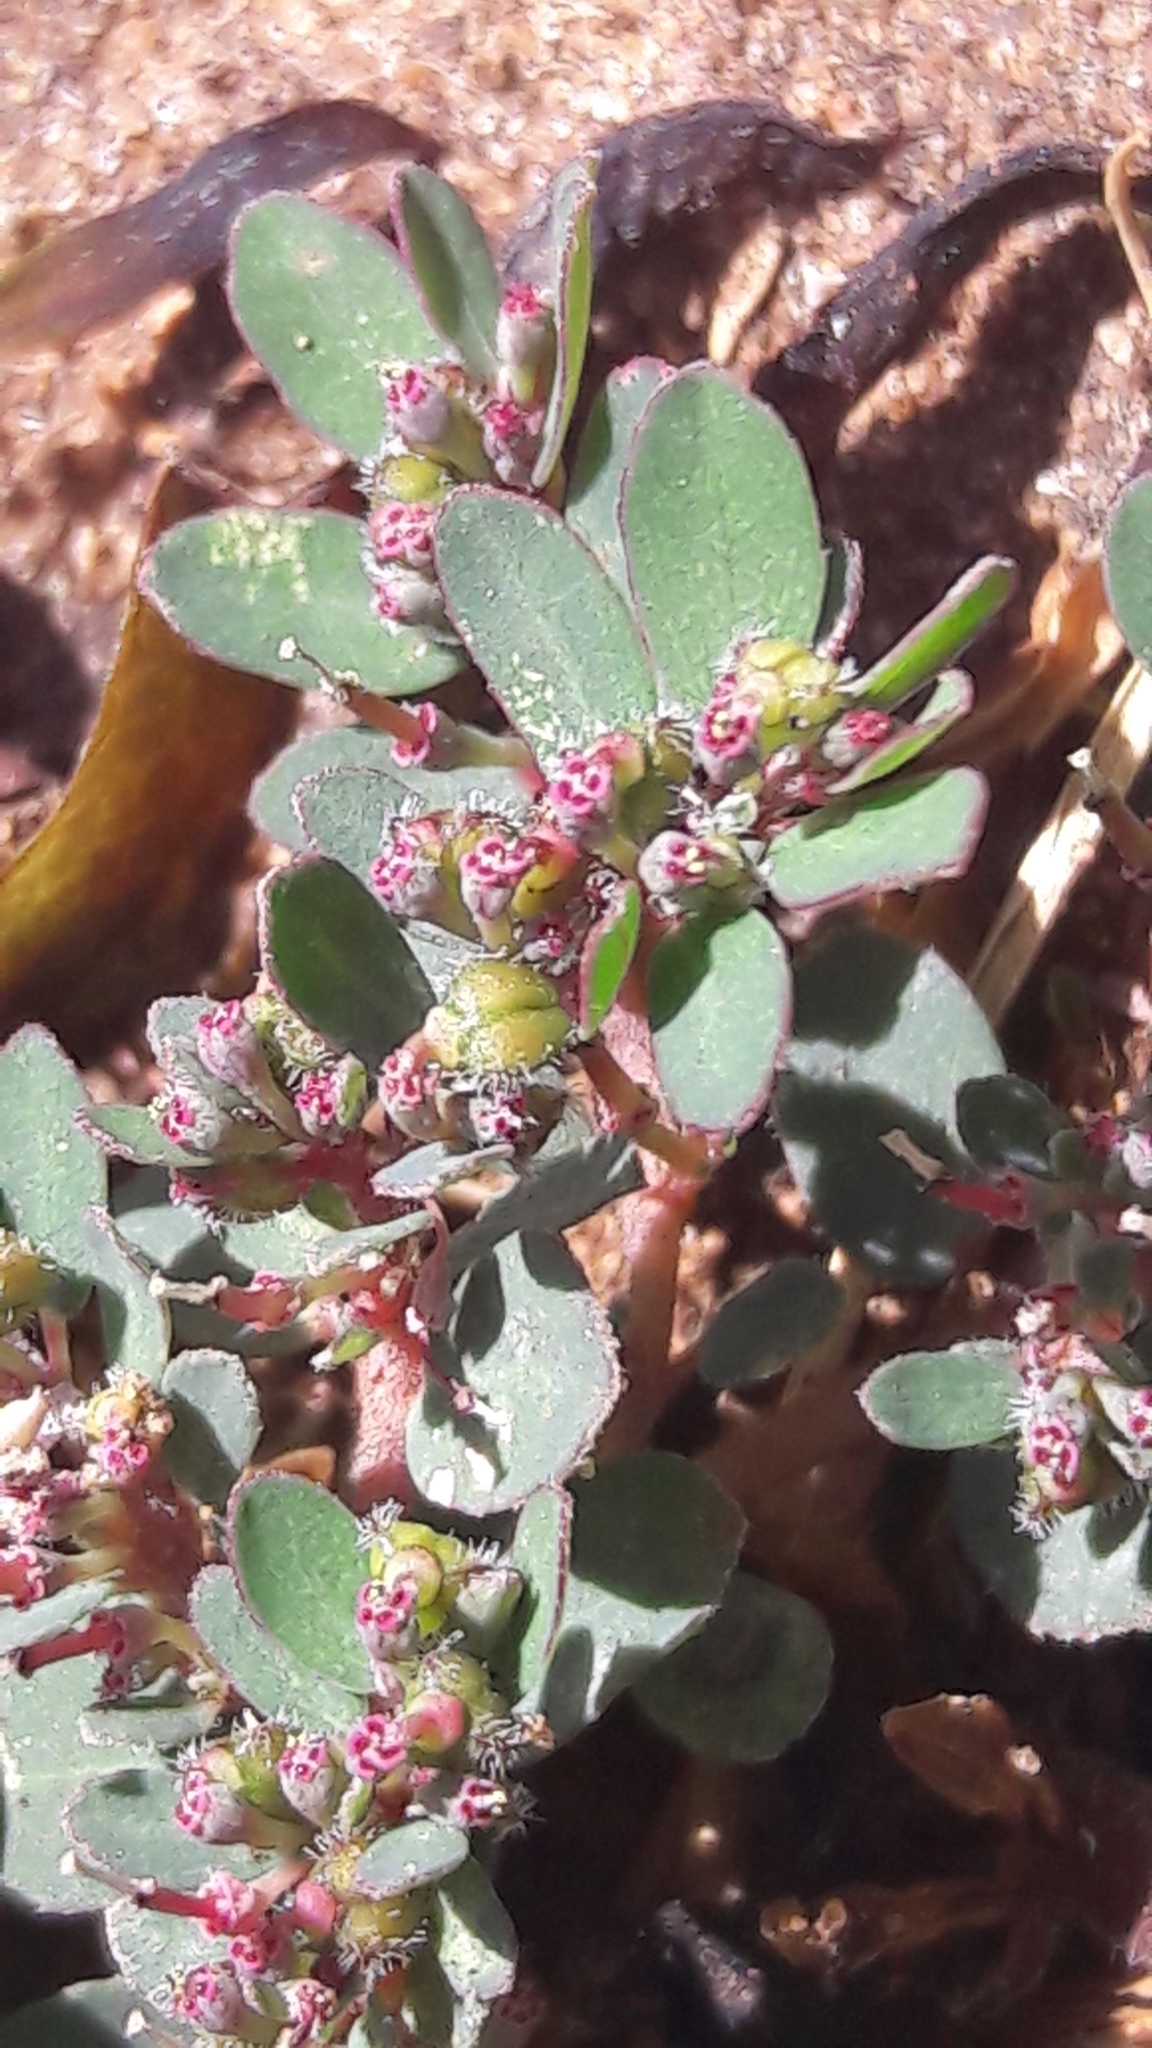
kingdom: Plantae
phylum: Tracheophyta
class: Magnoliopsida
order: Malpighiales
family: Euphorbiaceae
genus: Euphorbia
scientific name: Euphorbia prostrata
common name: Prostrate sandmat
